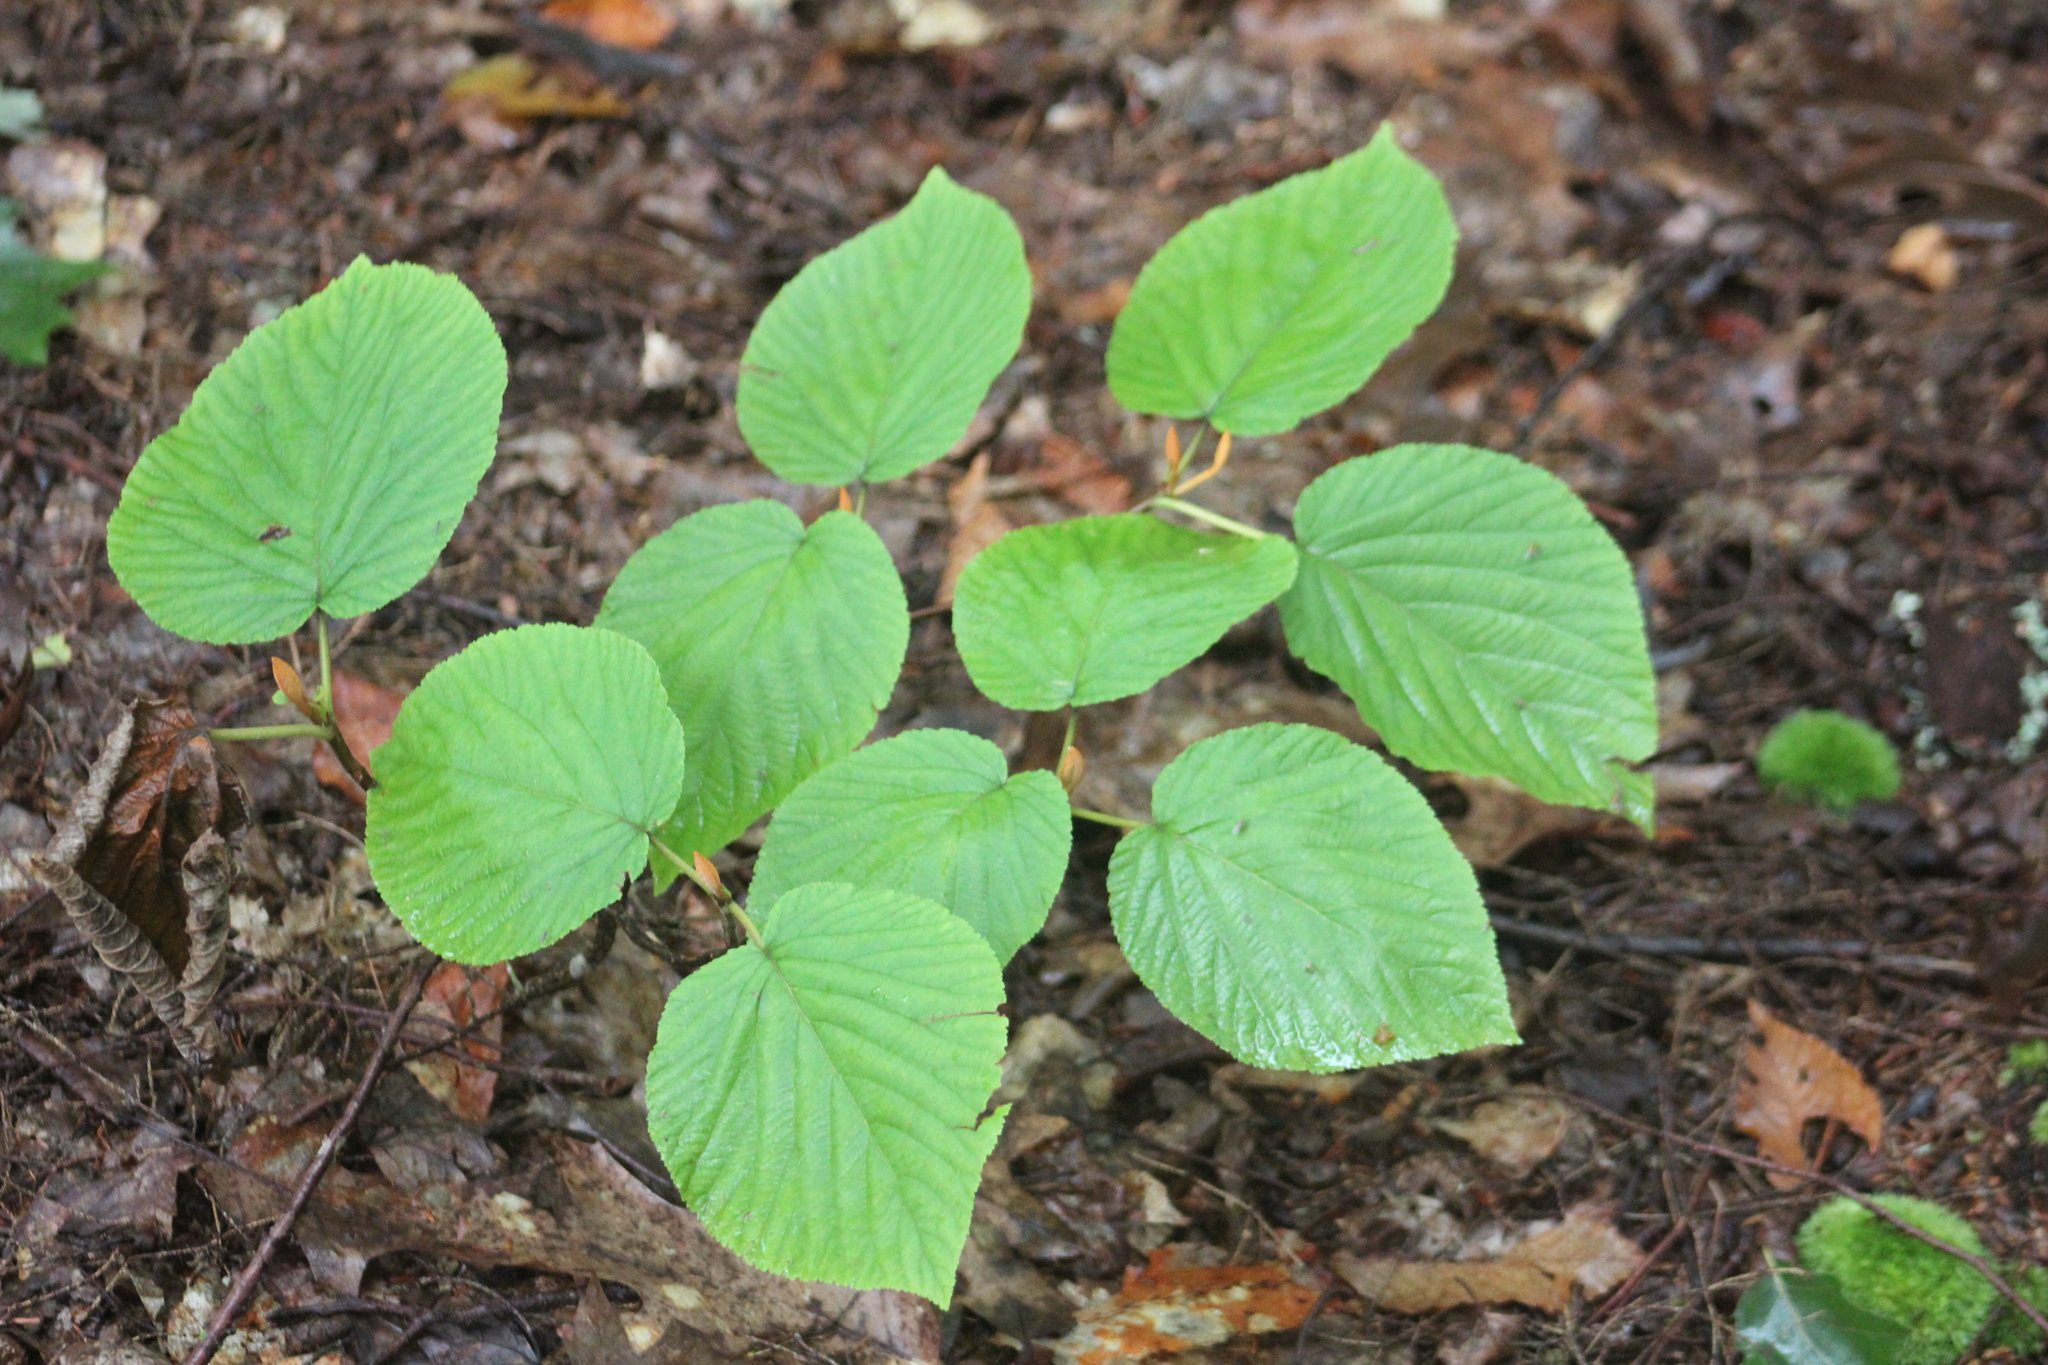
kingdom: Plantae
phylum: Tracheophyta
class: Magnoliopsida
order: Dipsacales
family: Viburnaceae
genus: Viburnum
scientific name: Viburnum lantanoides
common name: Hobblebush
